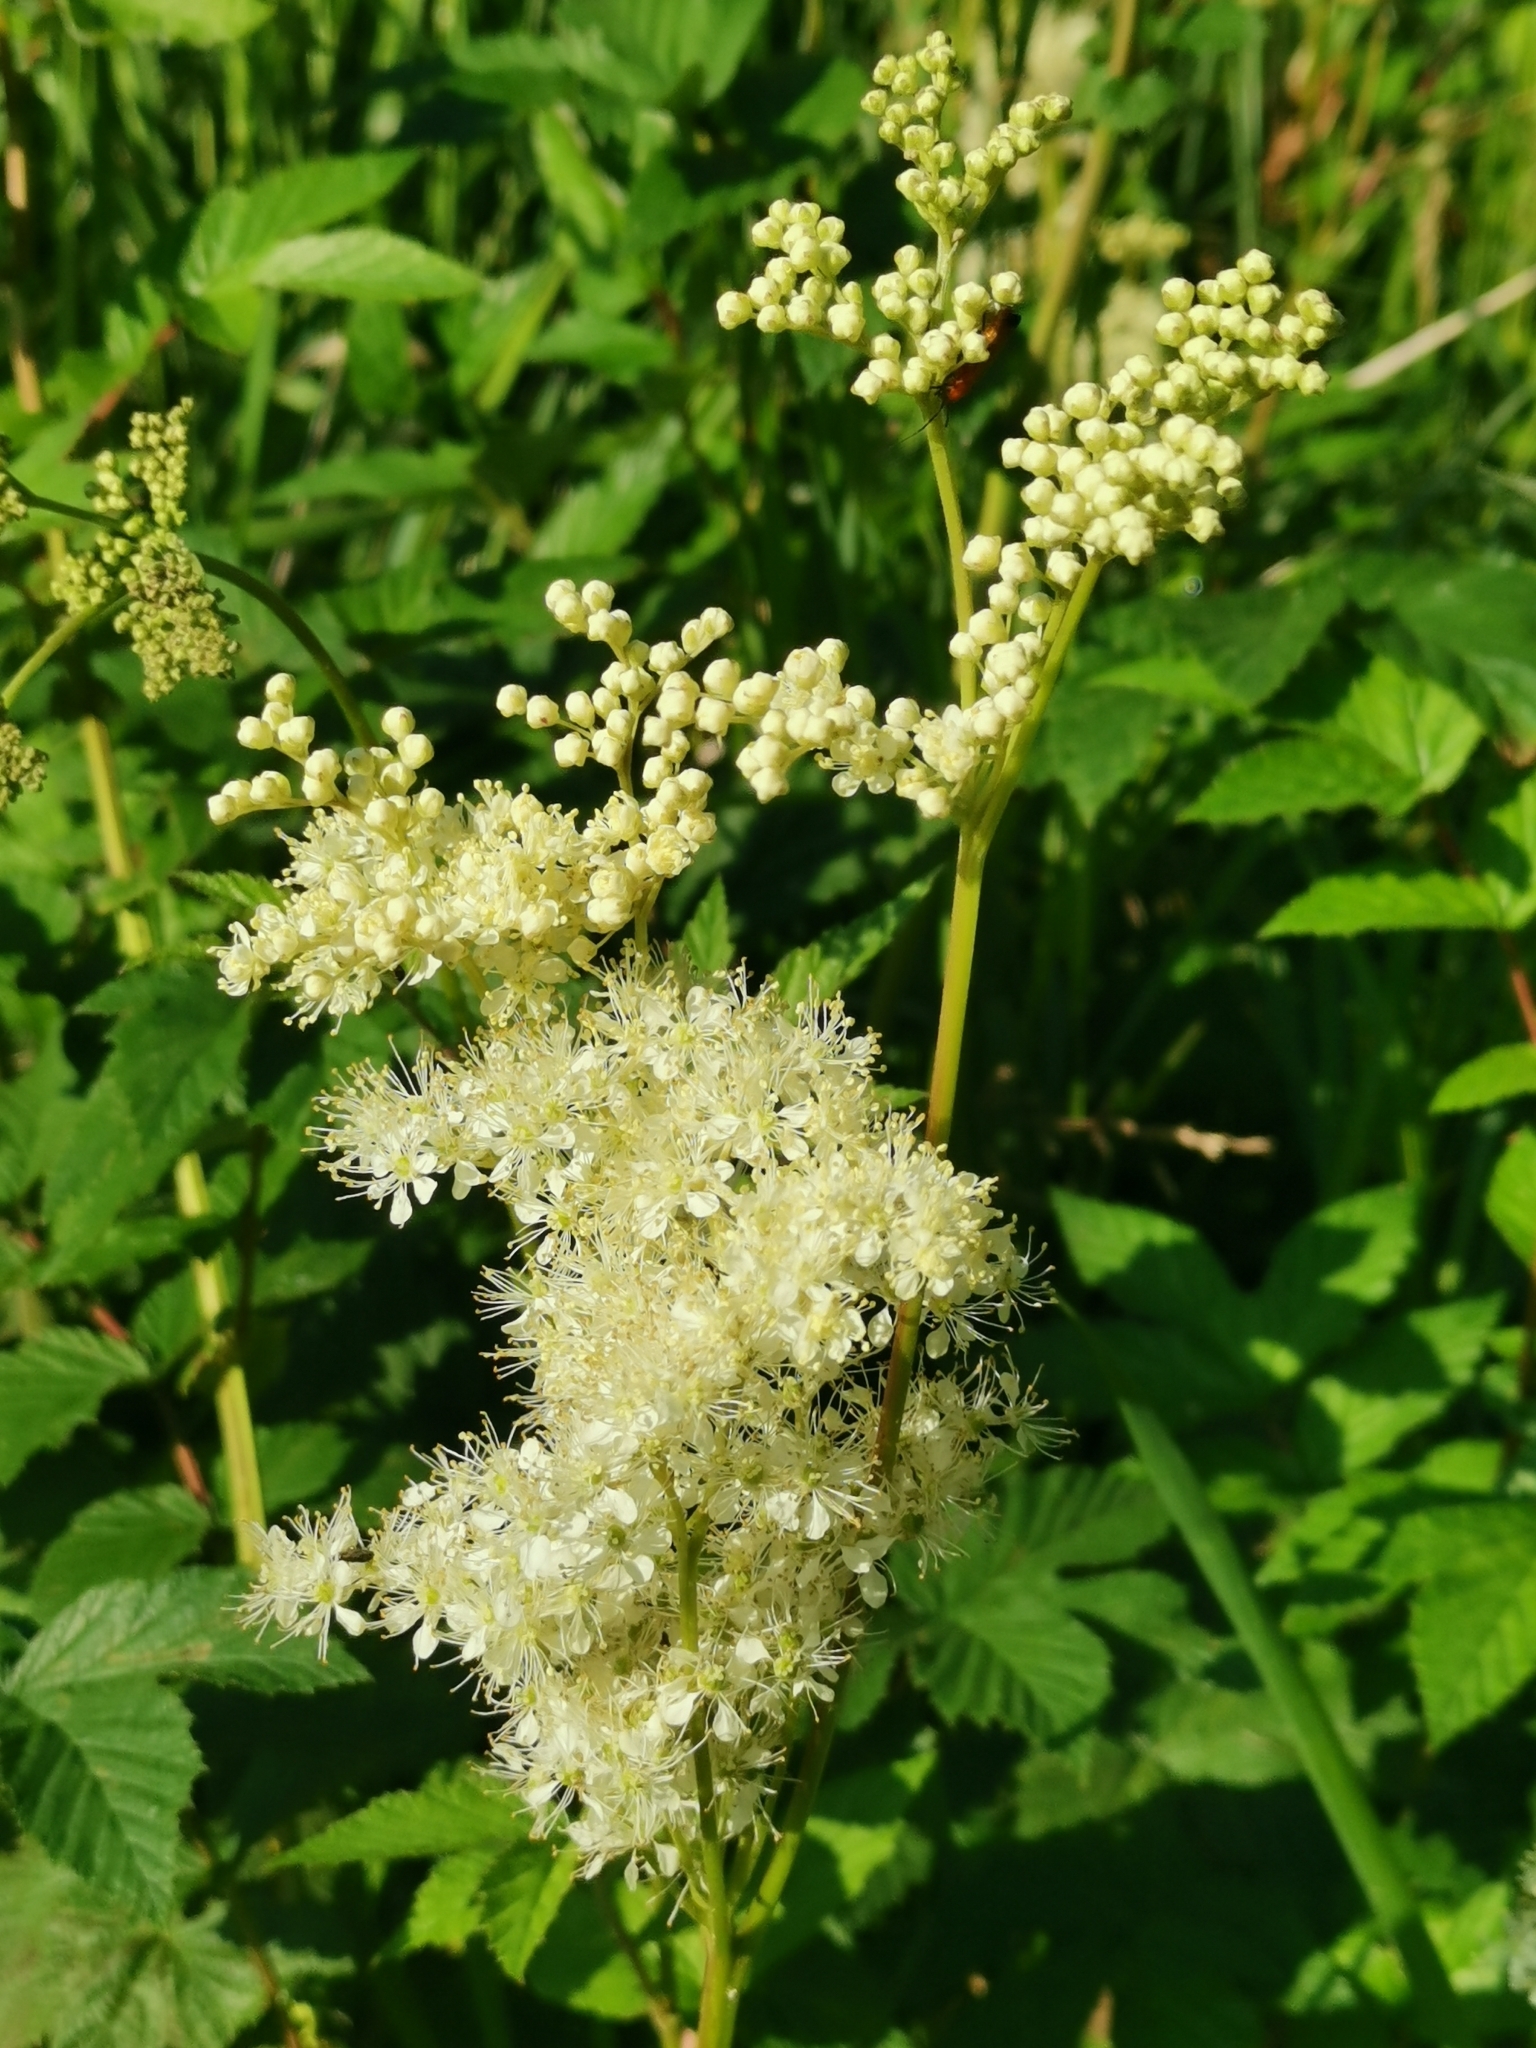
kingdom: Plantae
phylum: Tracheophyta
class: Magnoliopsida
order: Rosales
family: Rosaceae
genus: Filipendula
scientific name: Filipendula ulmaria
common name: Meadowsweet
